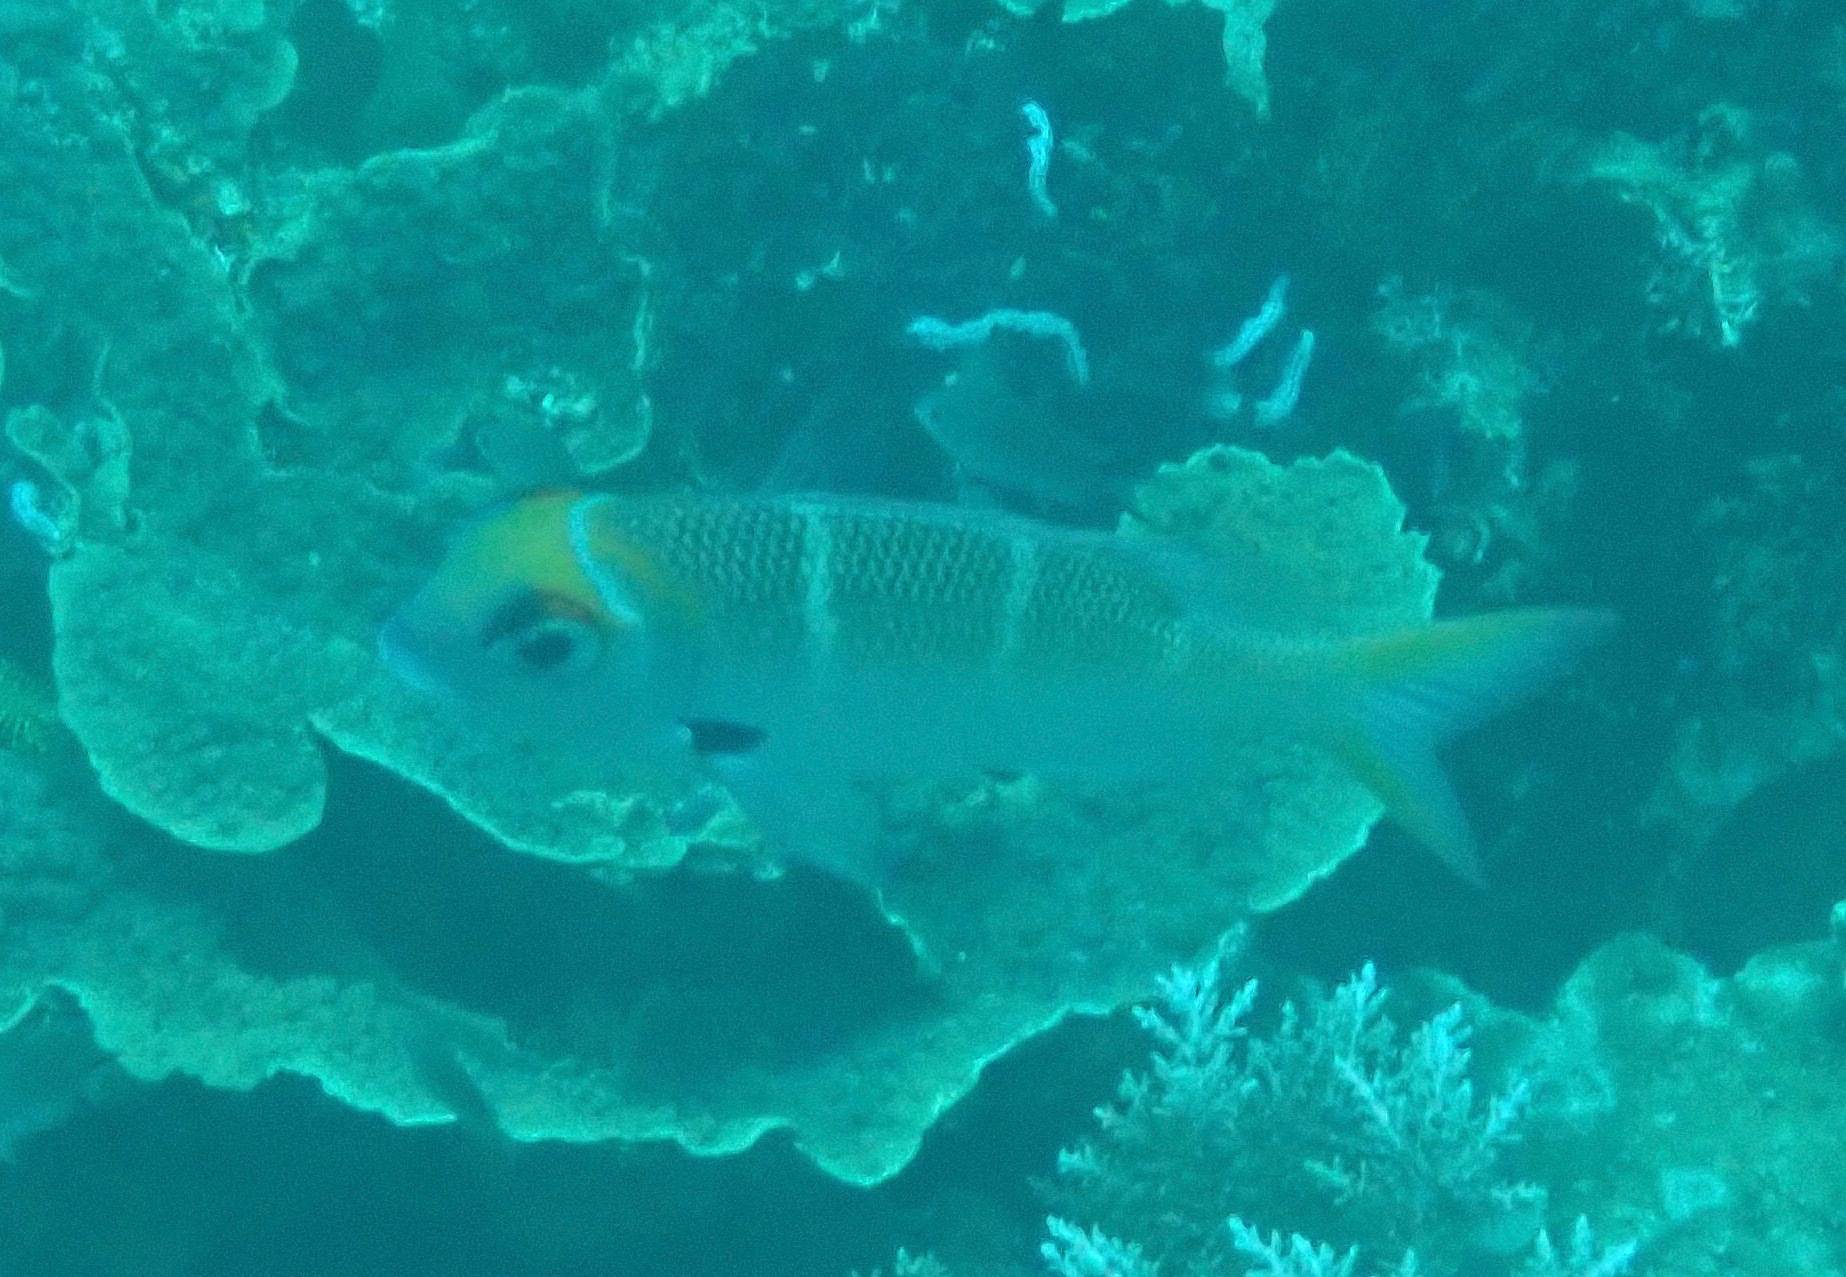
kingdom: Animalia
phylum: Chordata
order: Perciformes
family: Lethrinidae
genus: Monotaxis
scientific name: Monotaxis heterodon
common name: Redfin emperor
